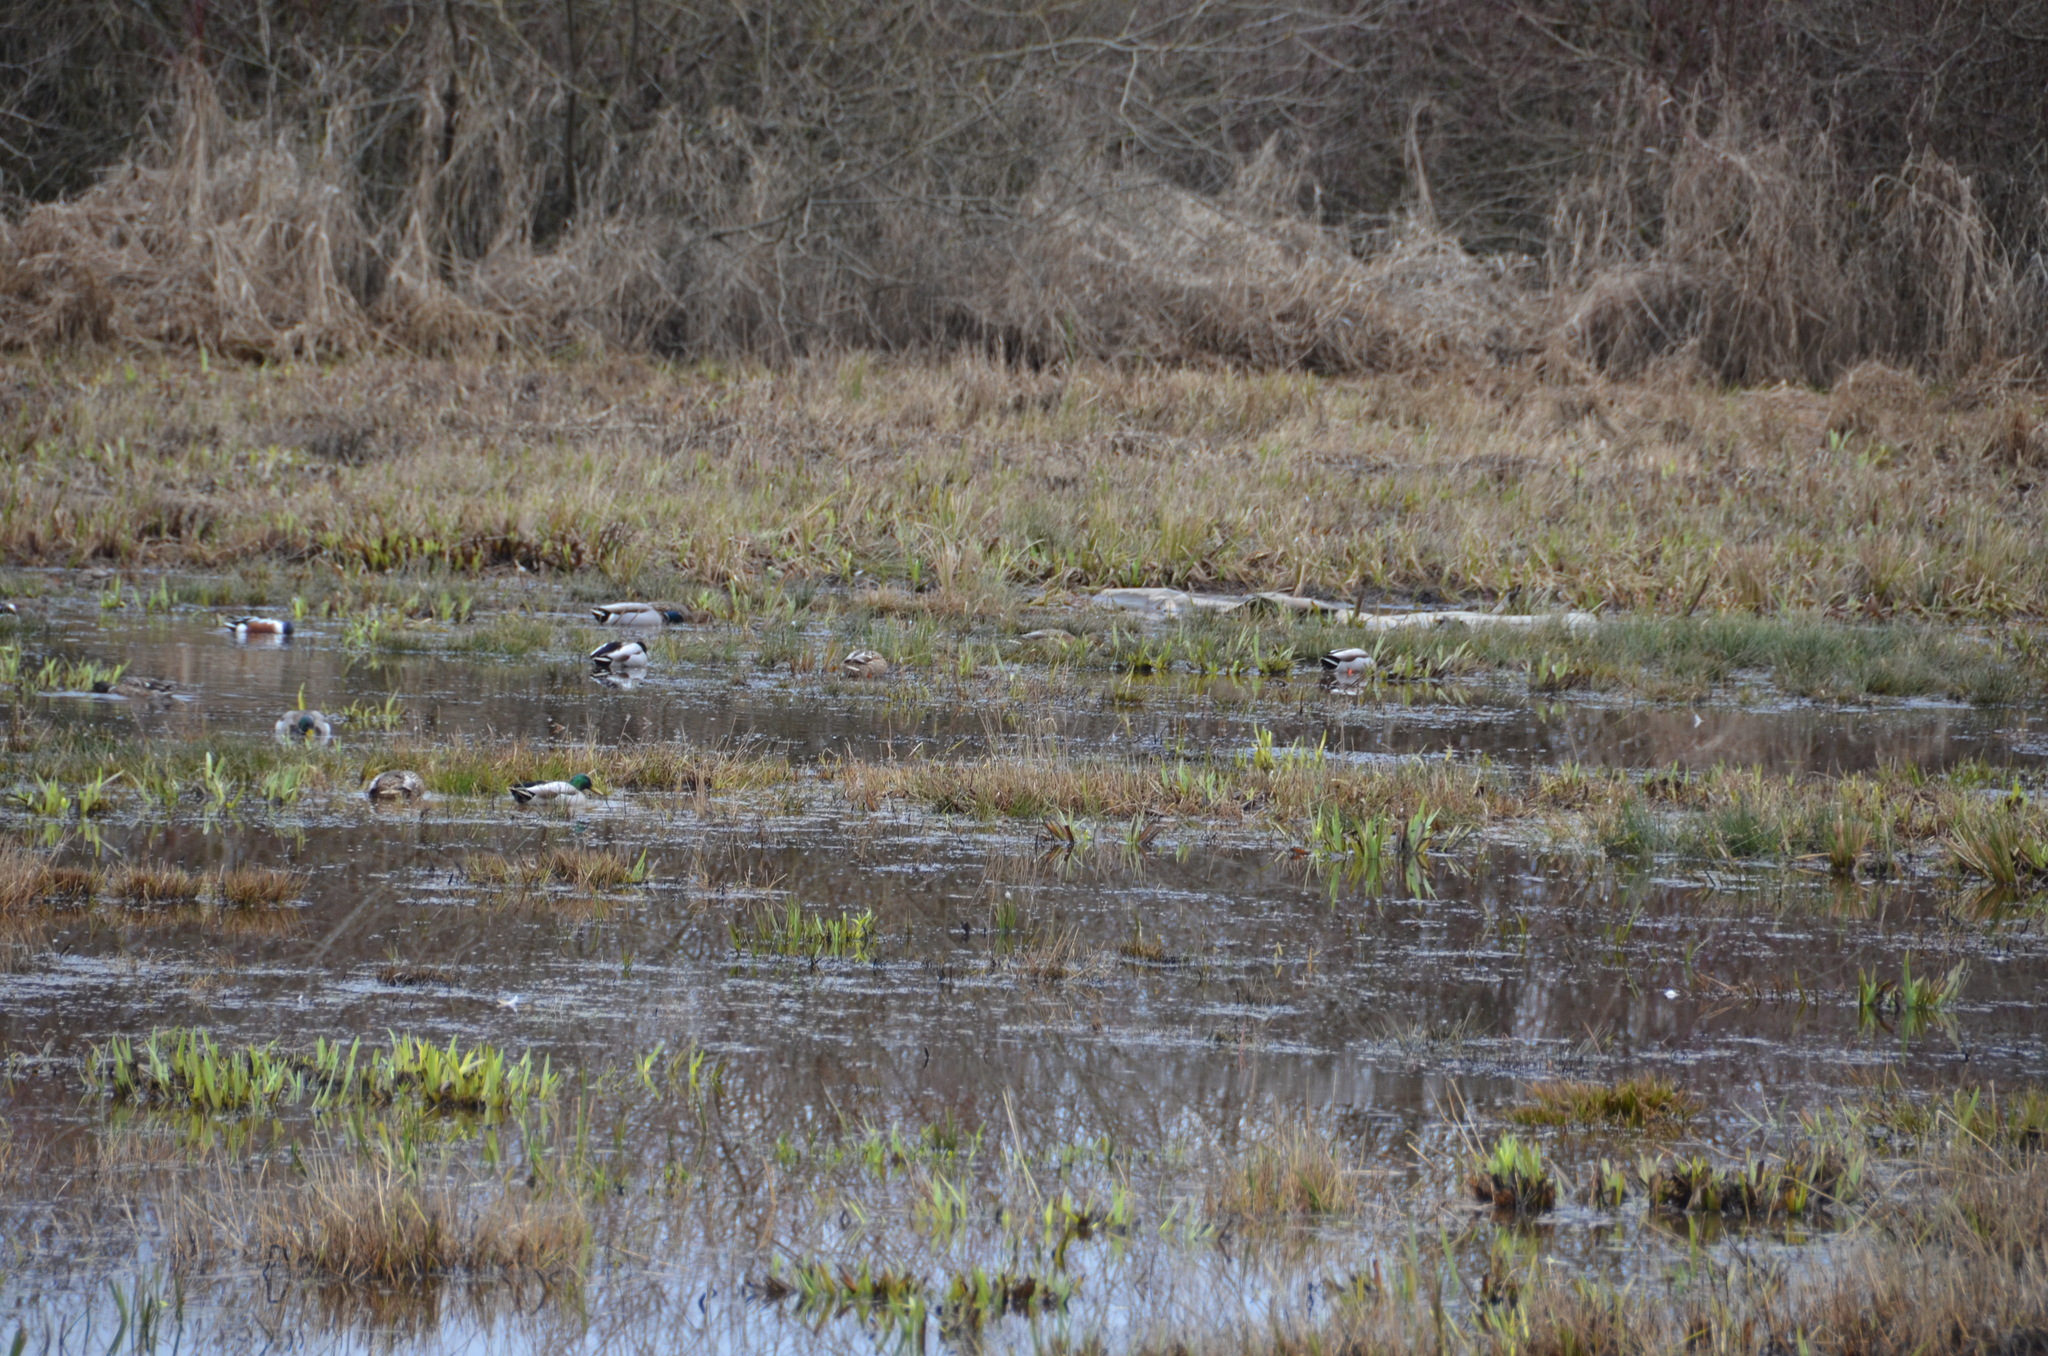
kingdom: Animalia
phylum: Chordata
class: Aves
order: Anseriformes
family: Anatidae
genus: Anas
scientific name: Anas platyrhynchos
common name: Mallard
